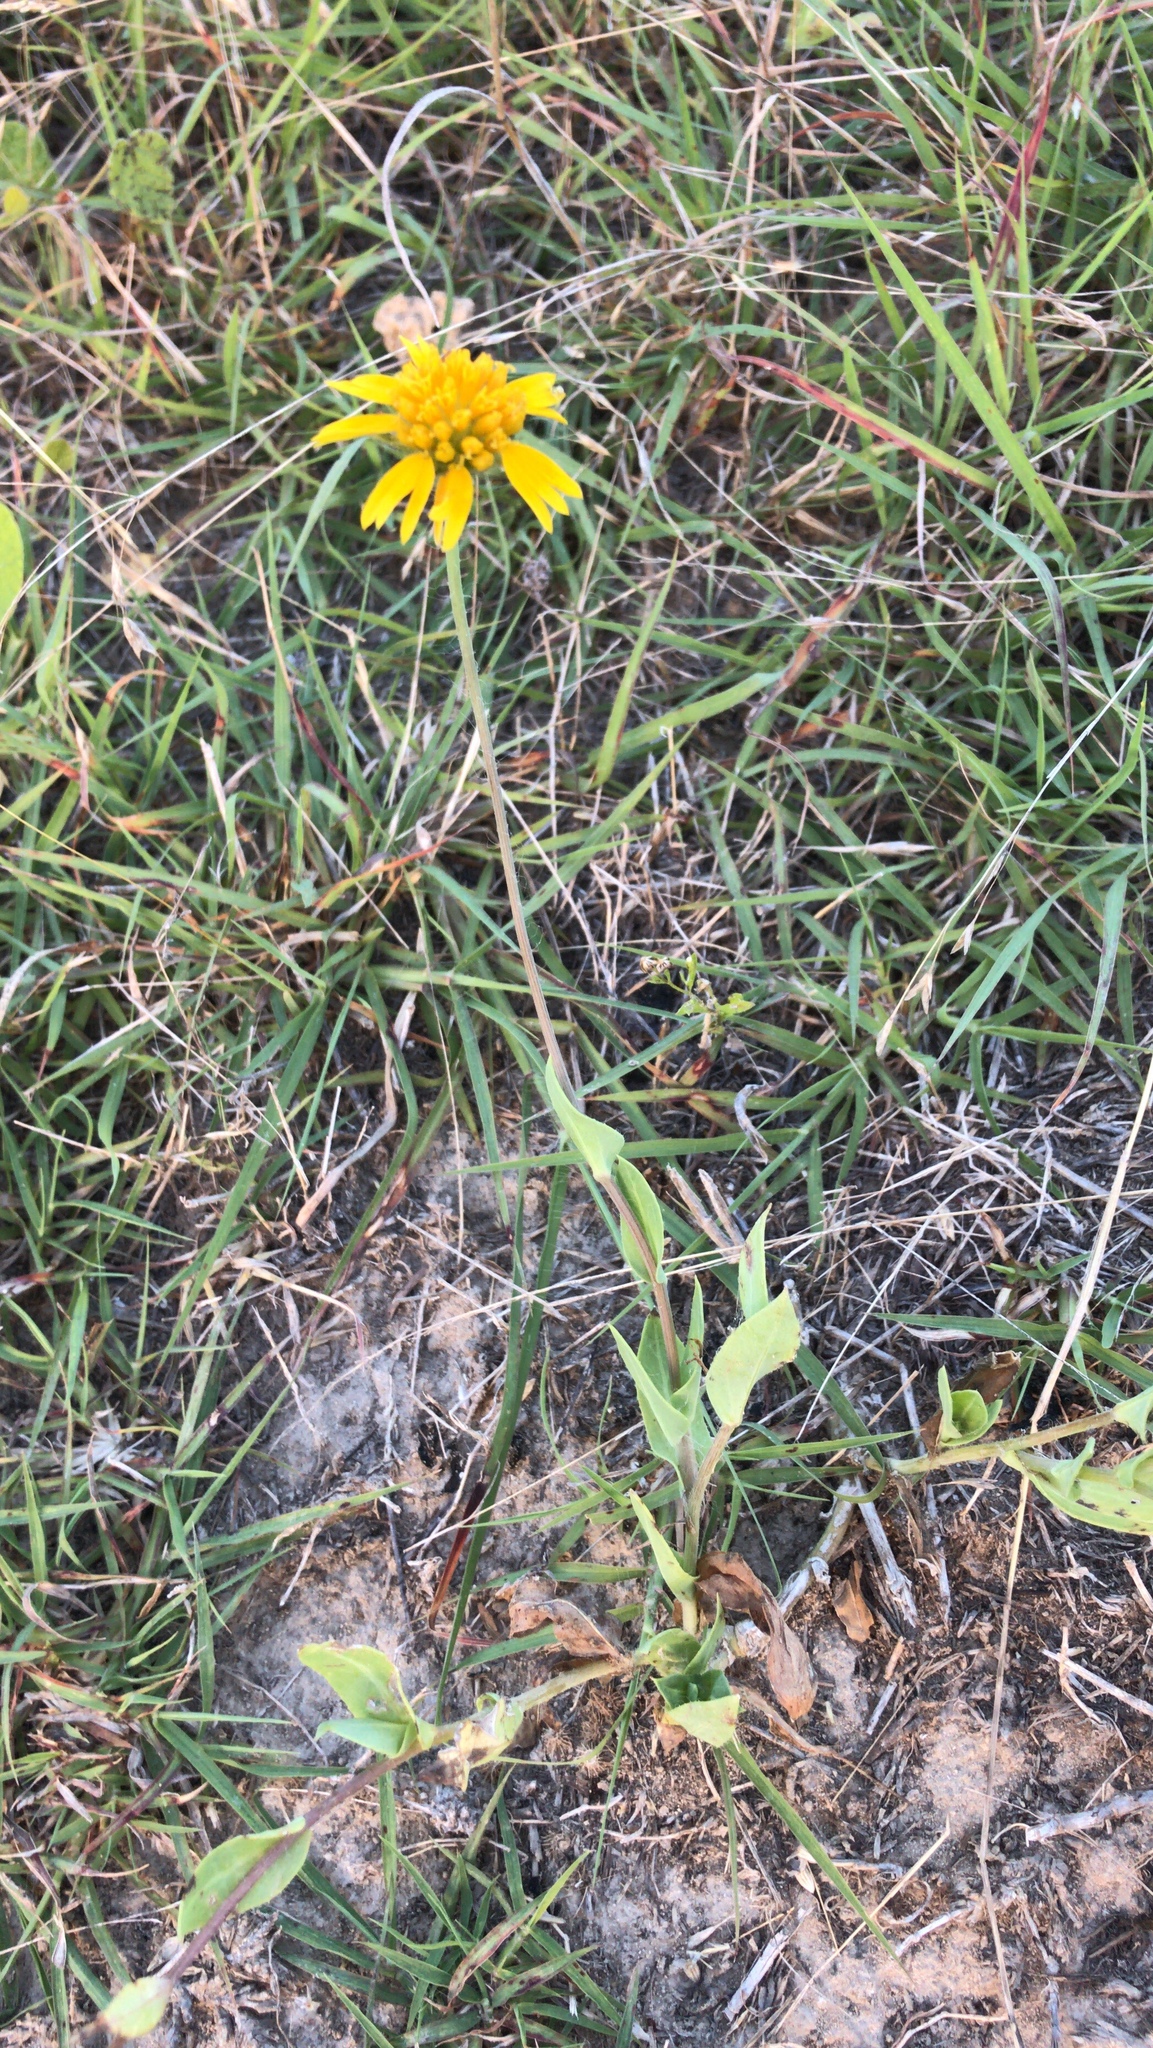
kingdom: Plantae
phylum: Tracheophyta
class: Magnoliopsida
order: Asterales
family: Asteraceae
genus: Amblyolepis
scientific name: Amblyolepis setigera
